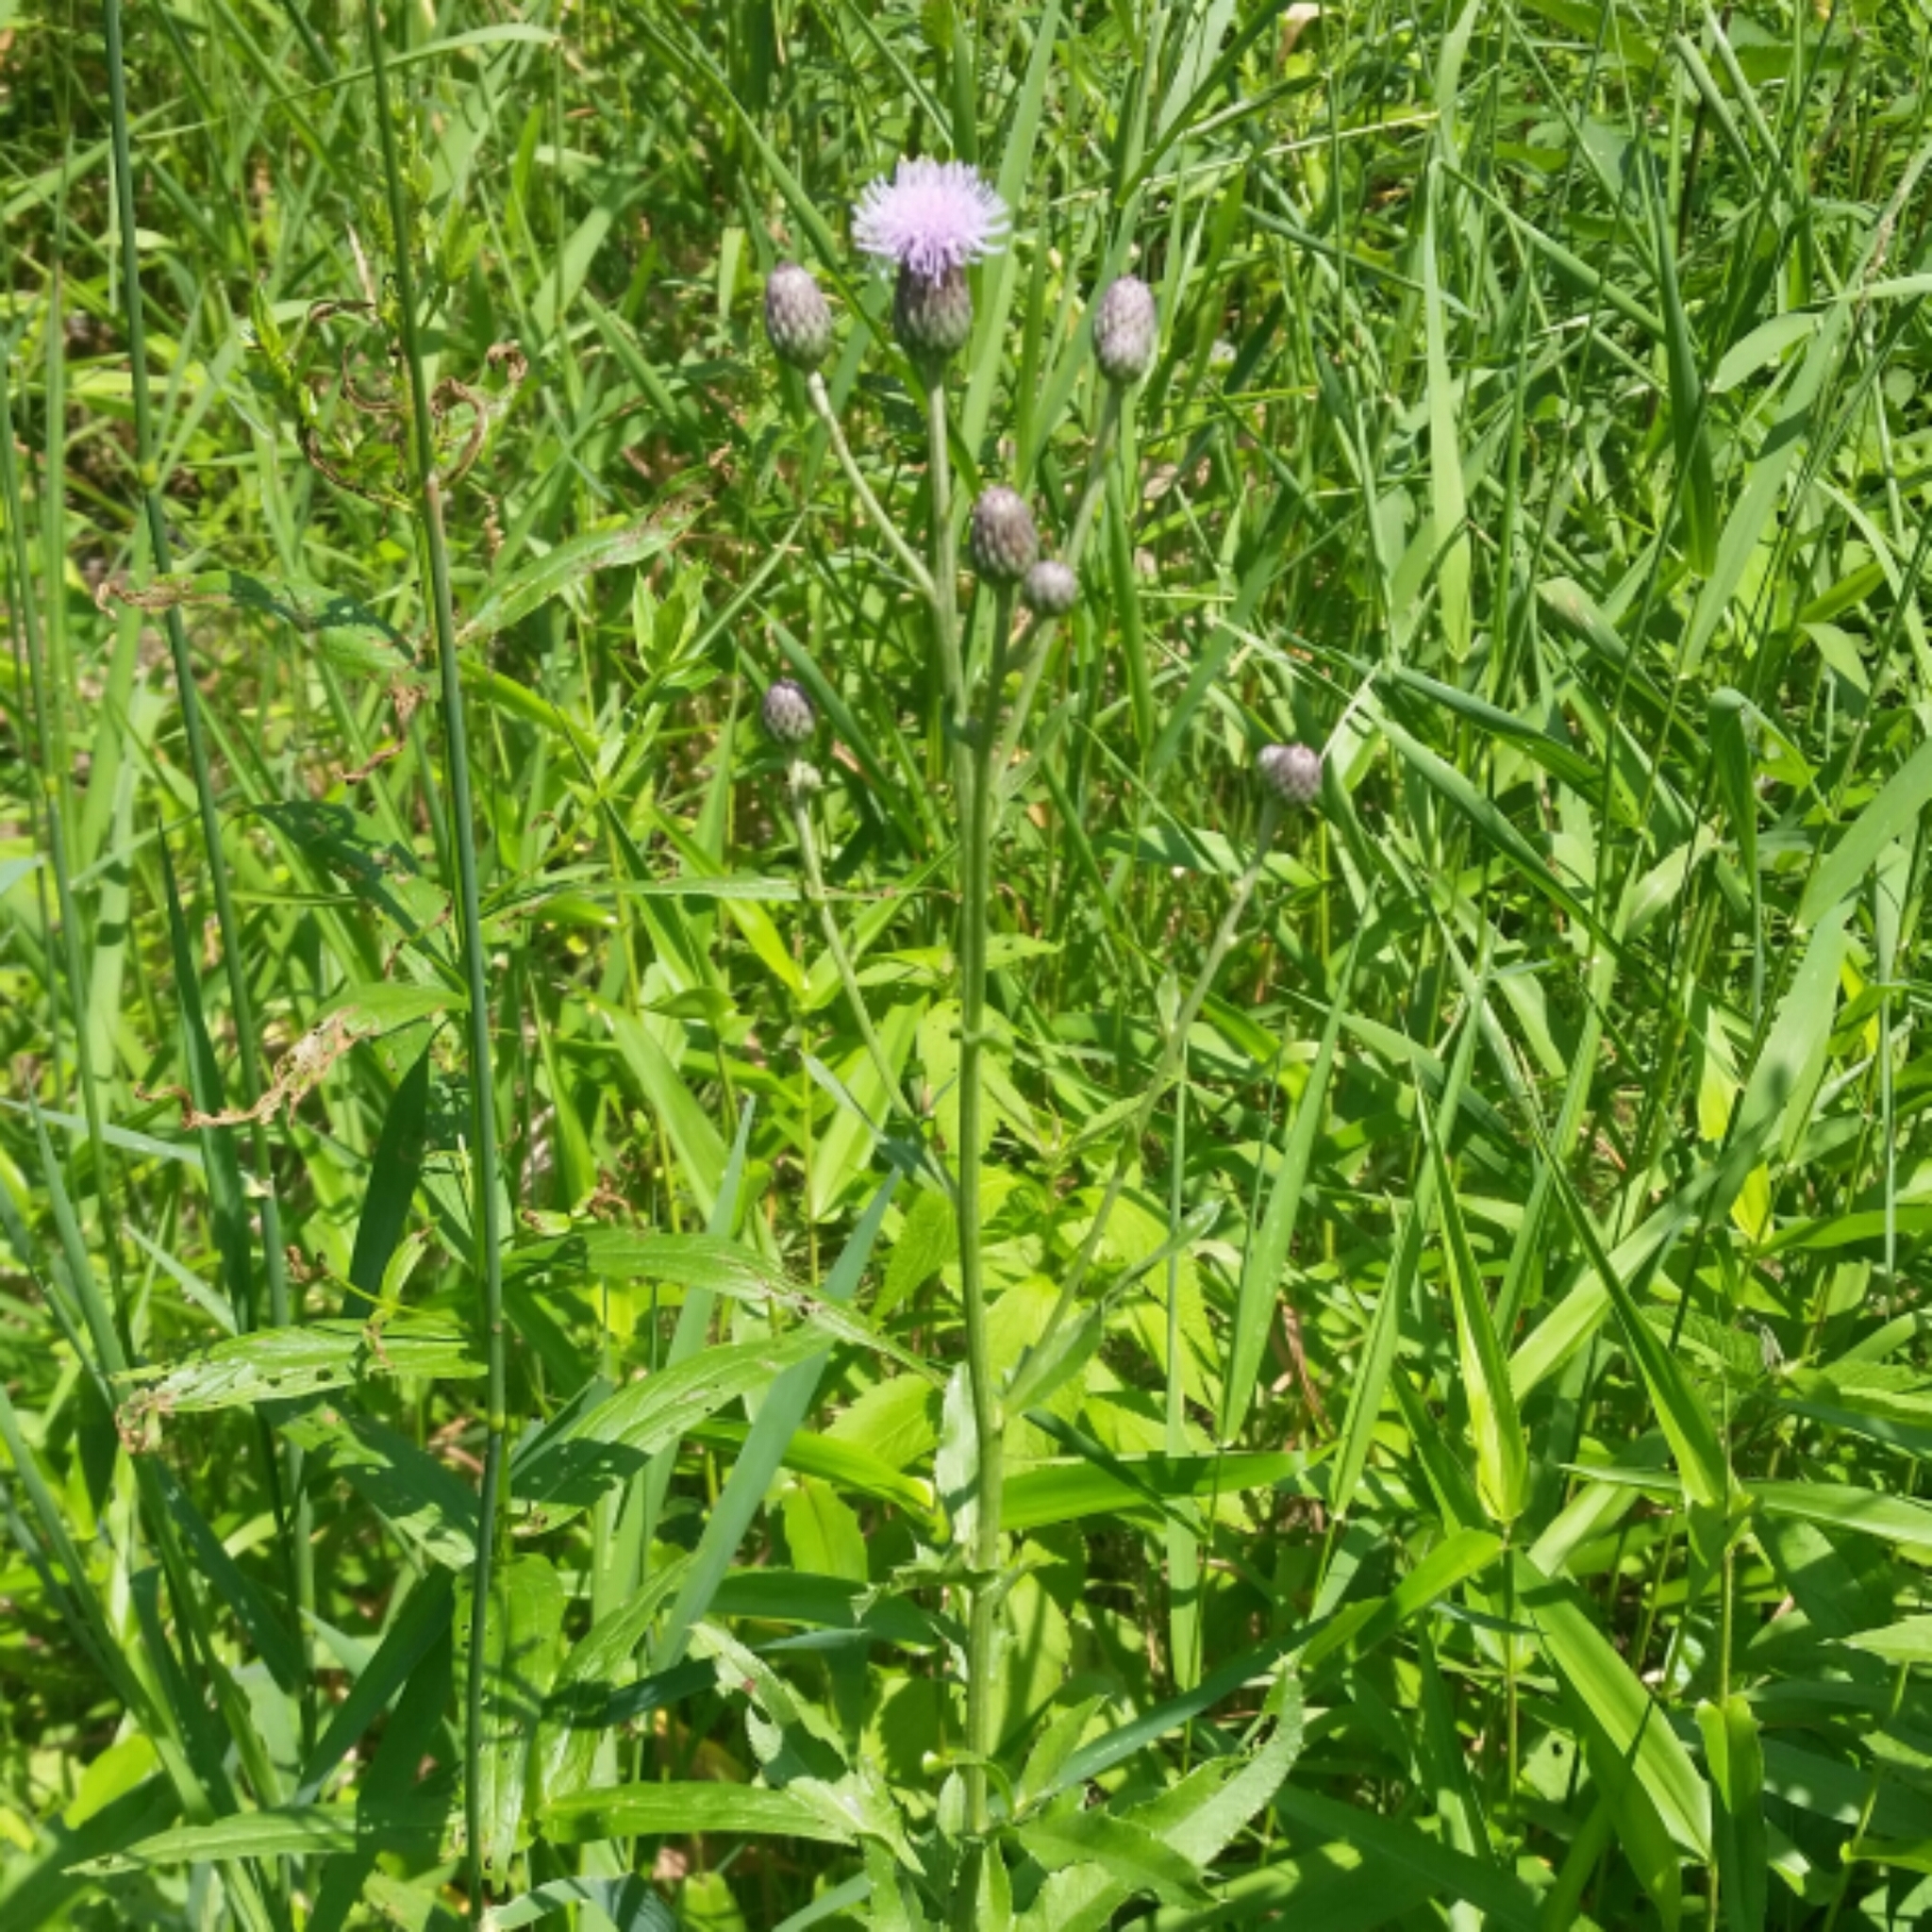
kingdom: Plantae
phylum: Tracheophyta
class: Magnoliopsida
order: Asterales
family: Asteraceae
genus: Cirsium
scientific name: Cirsium arvense
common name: Creeping thistle
